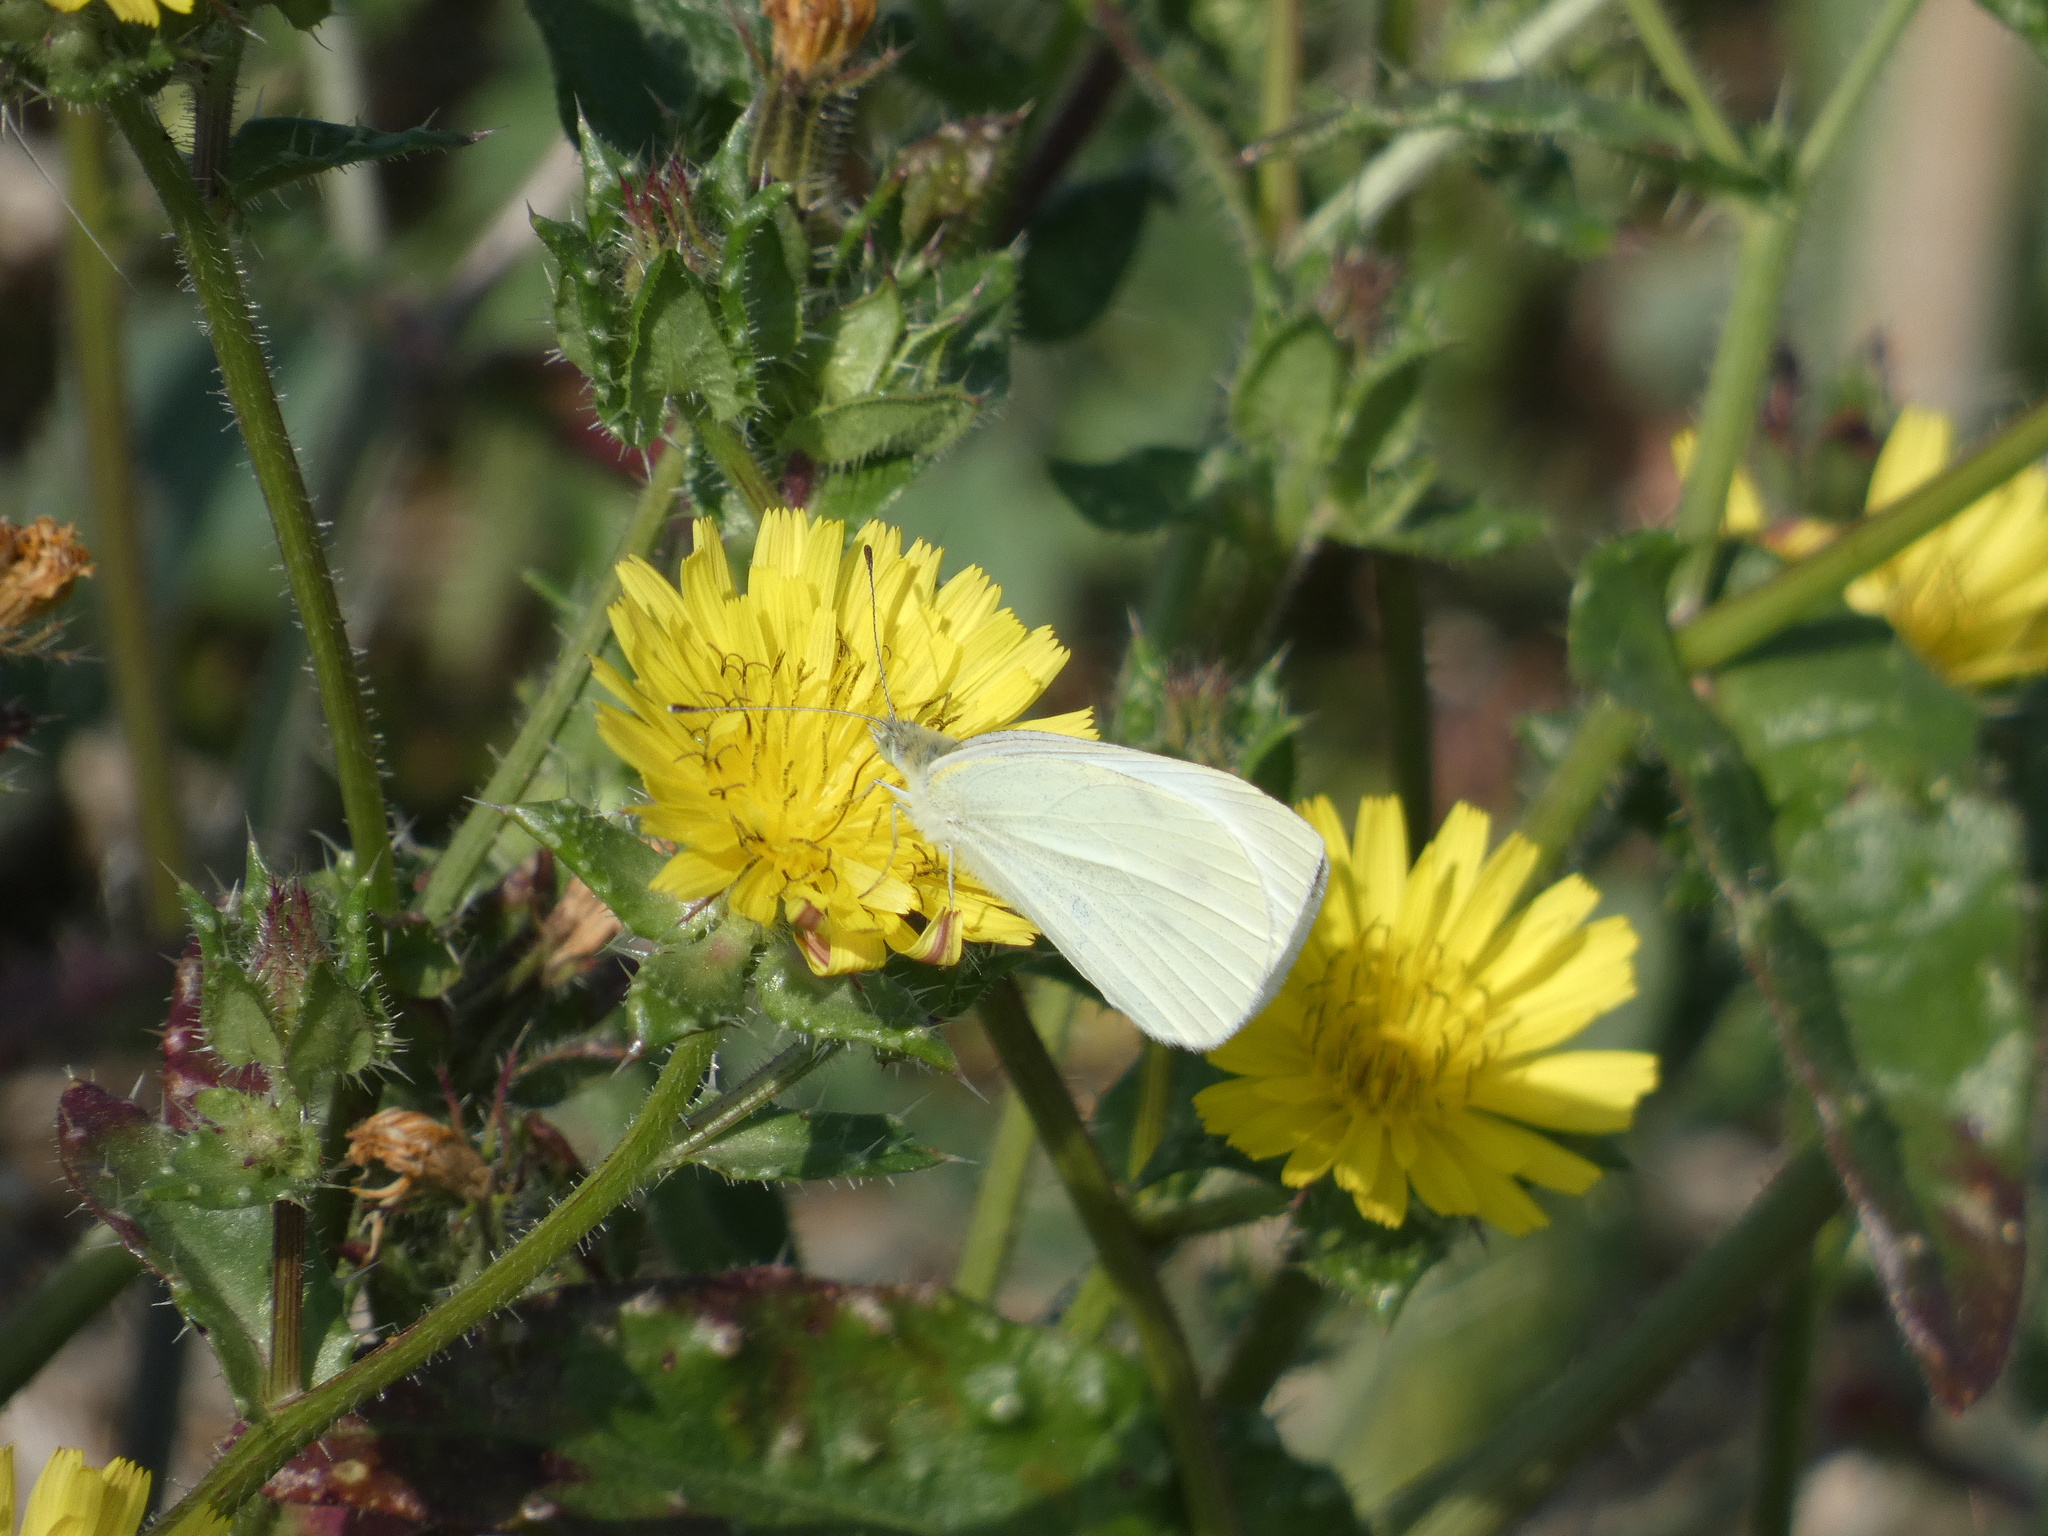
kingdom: Animalia
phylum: Arthropoda
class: Insecta
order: Lepidoptera
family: Pieridae
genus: Pieris
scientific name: Pieris rapae
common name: Small white
